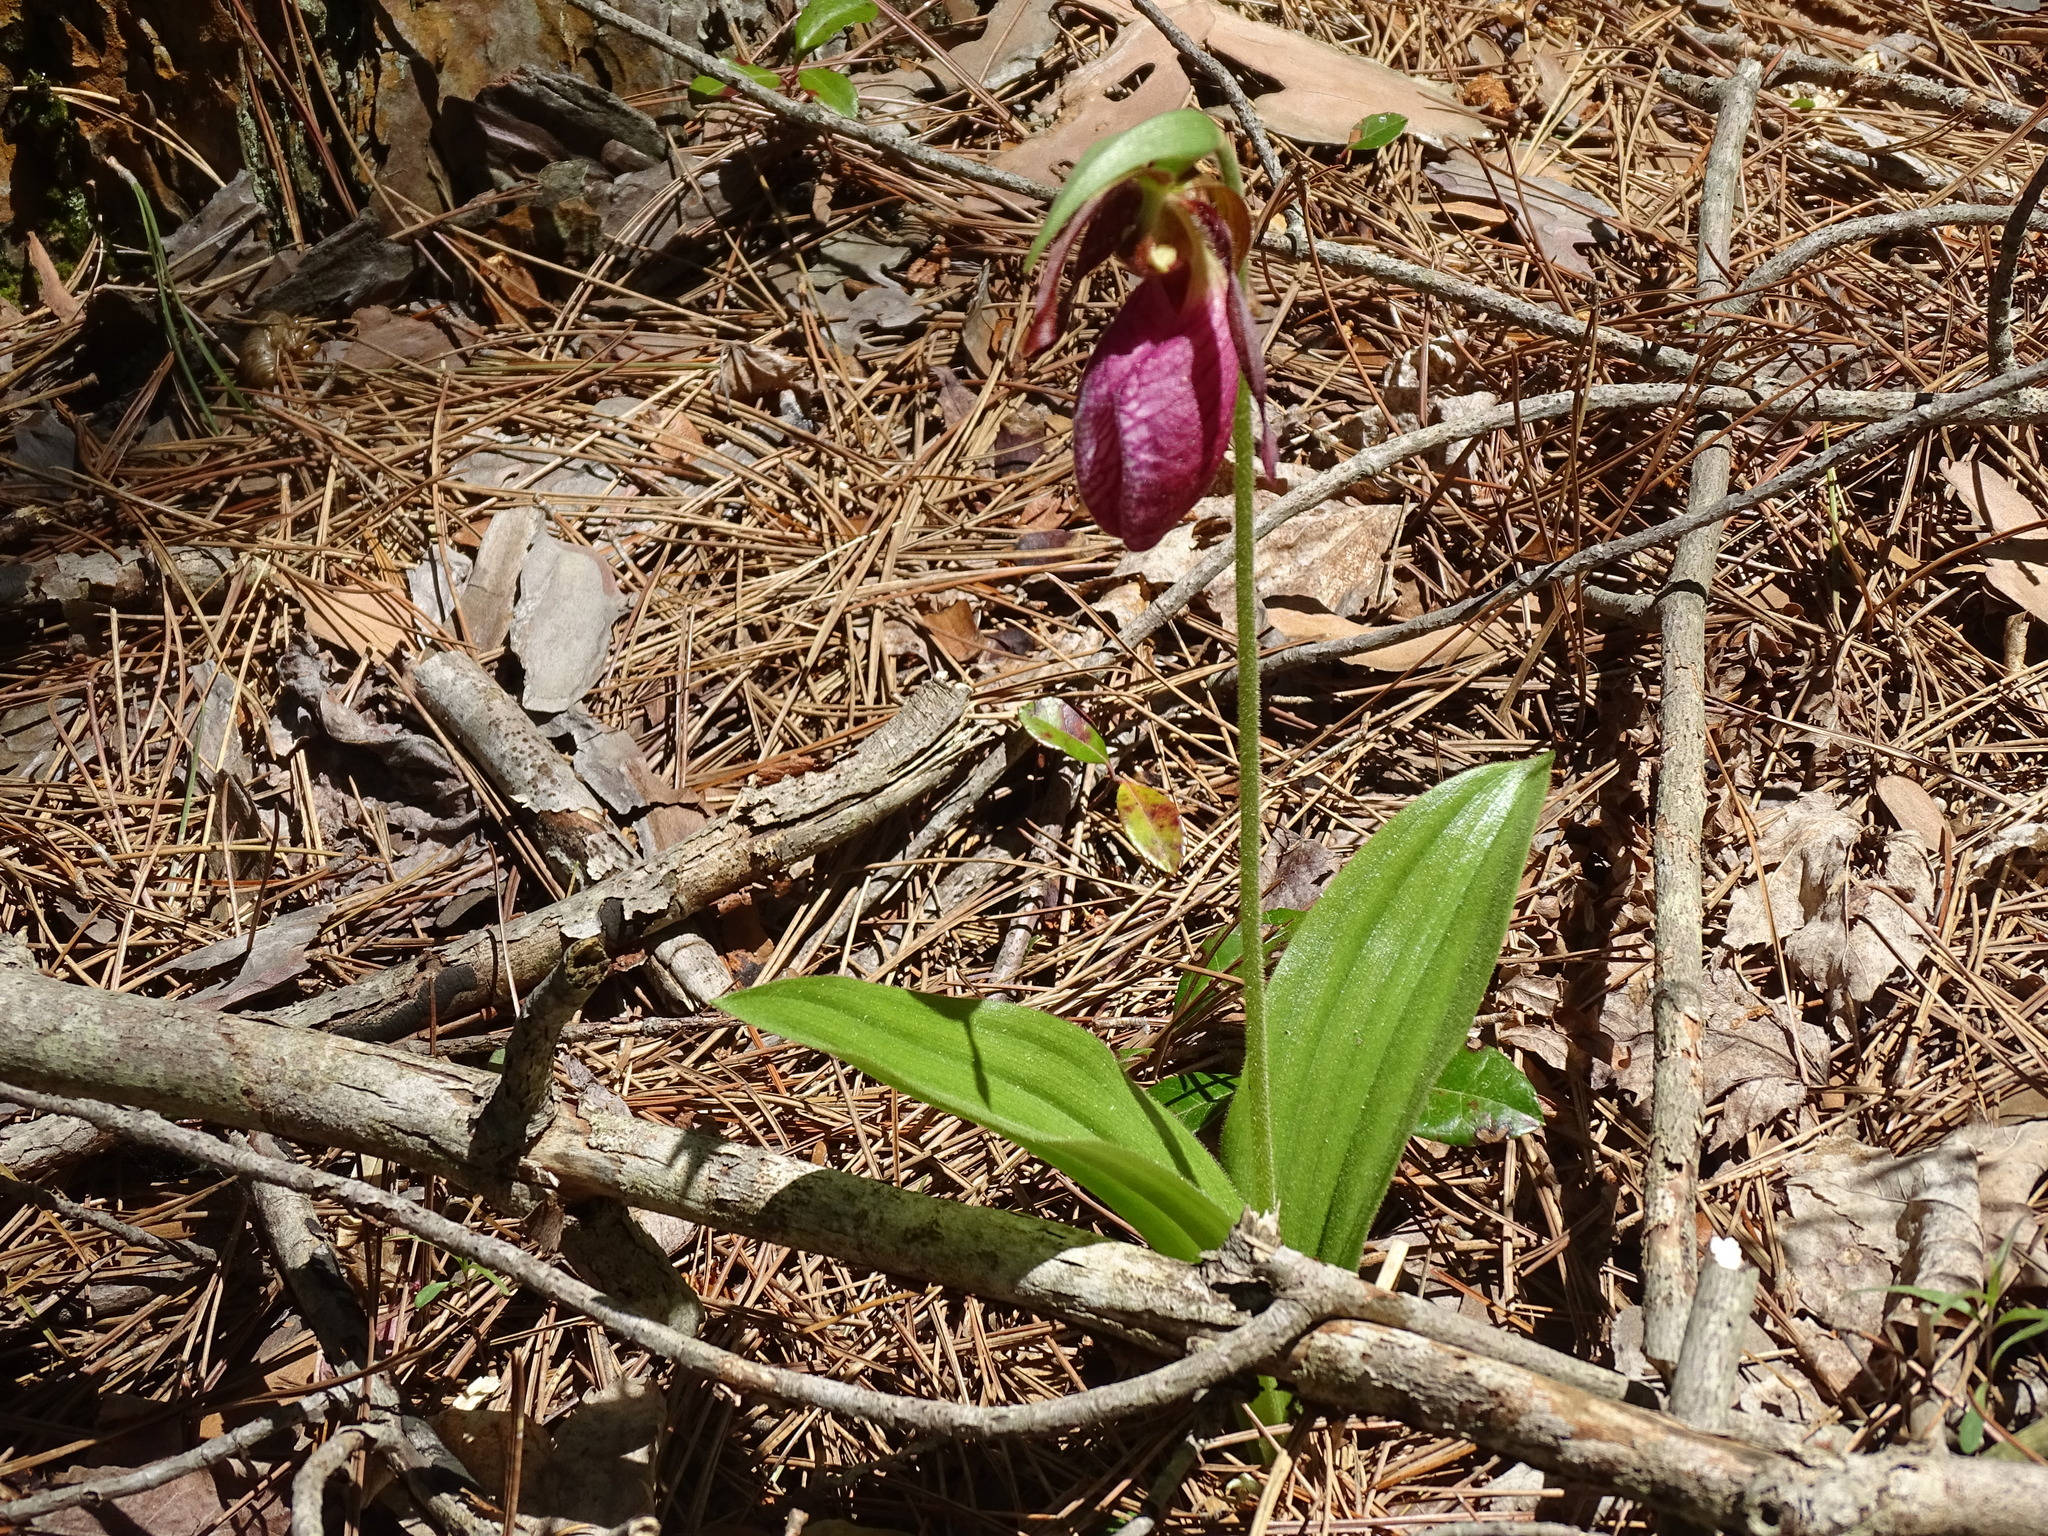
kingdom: Plantae
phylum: Tracheophyta
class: Liliopsida
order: Asparagales
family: Orchidaceae
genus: Cypripedium
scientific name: Cypripedium acaule
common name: Pink lady's-slipper
